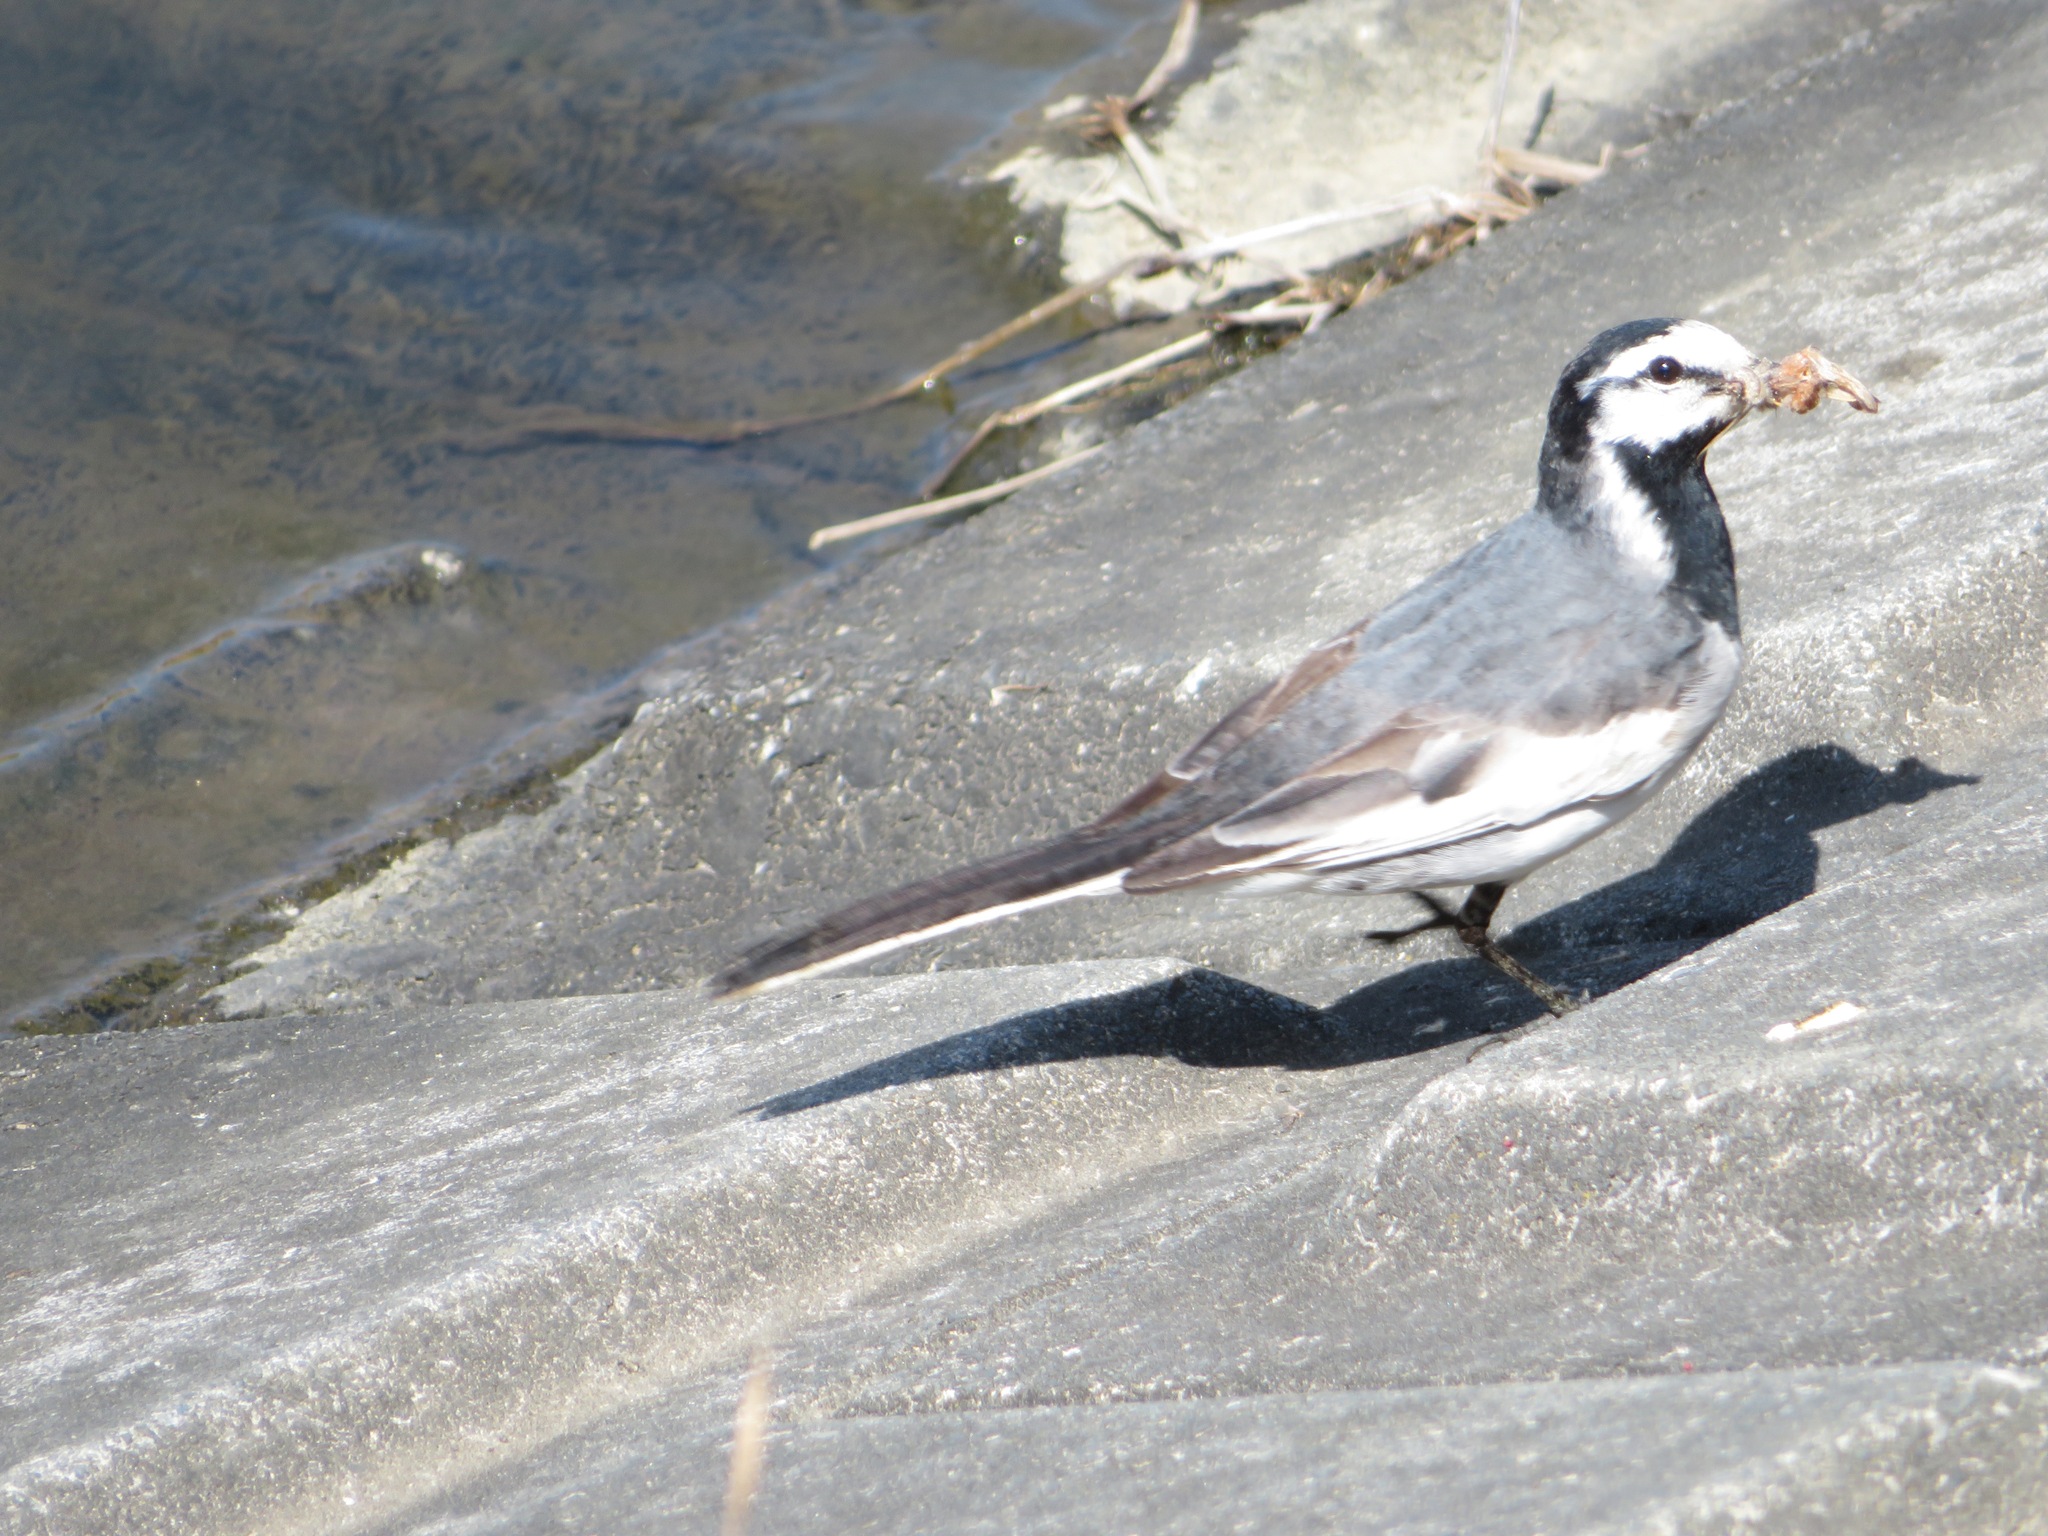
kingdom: Animalia
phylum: Chordata
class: Aves
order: Passeriformes
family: Motacillidae
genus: Motacilla
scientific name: Motacilla alba
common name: White wagtail
